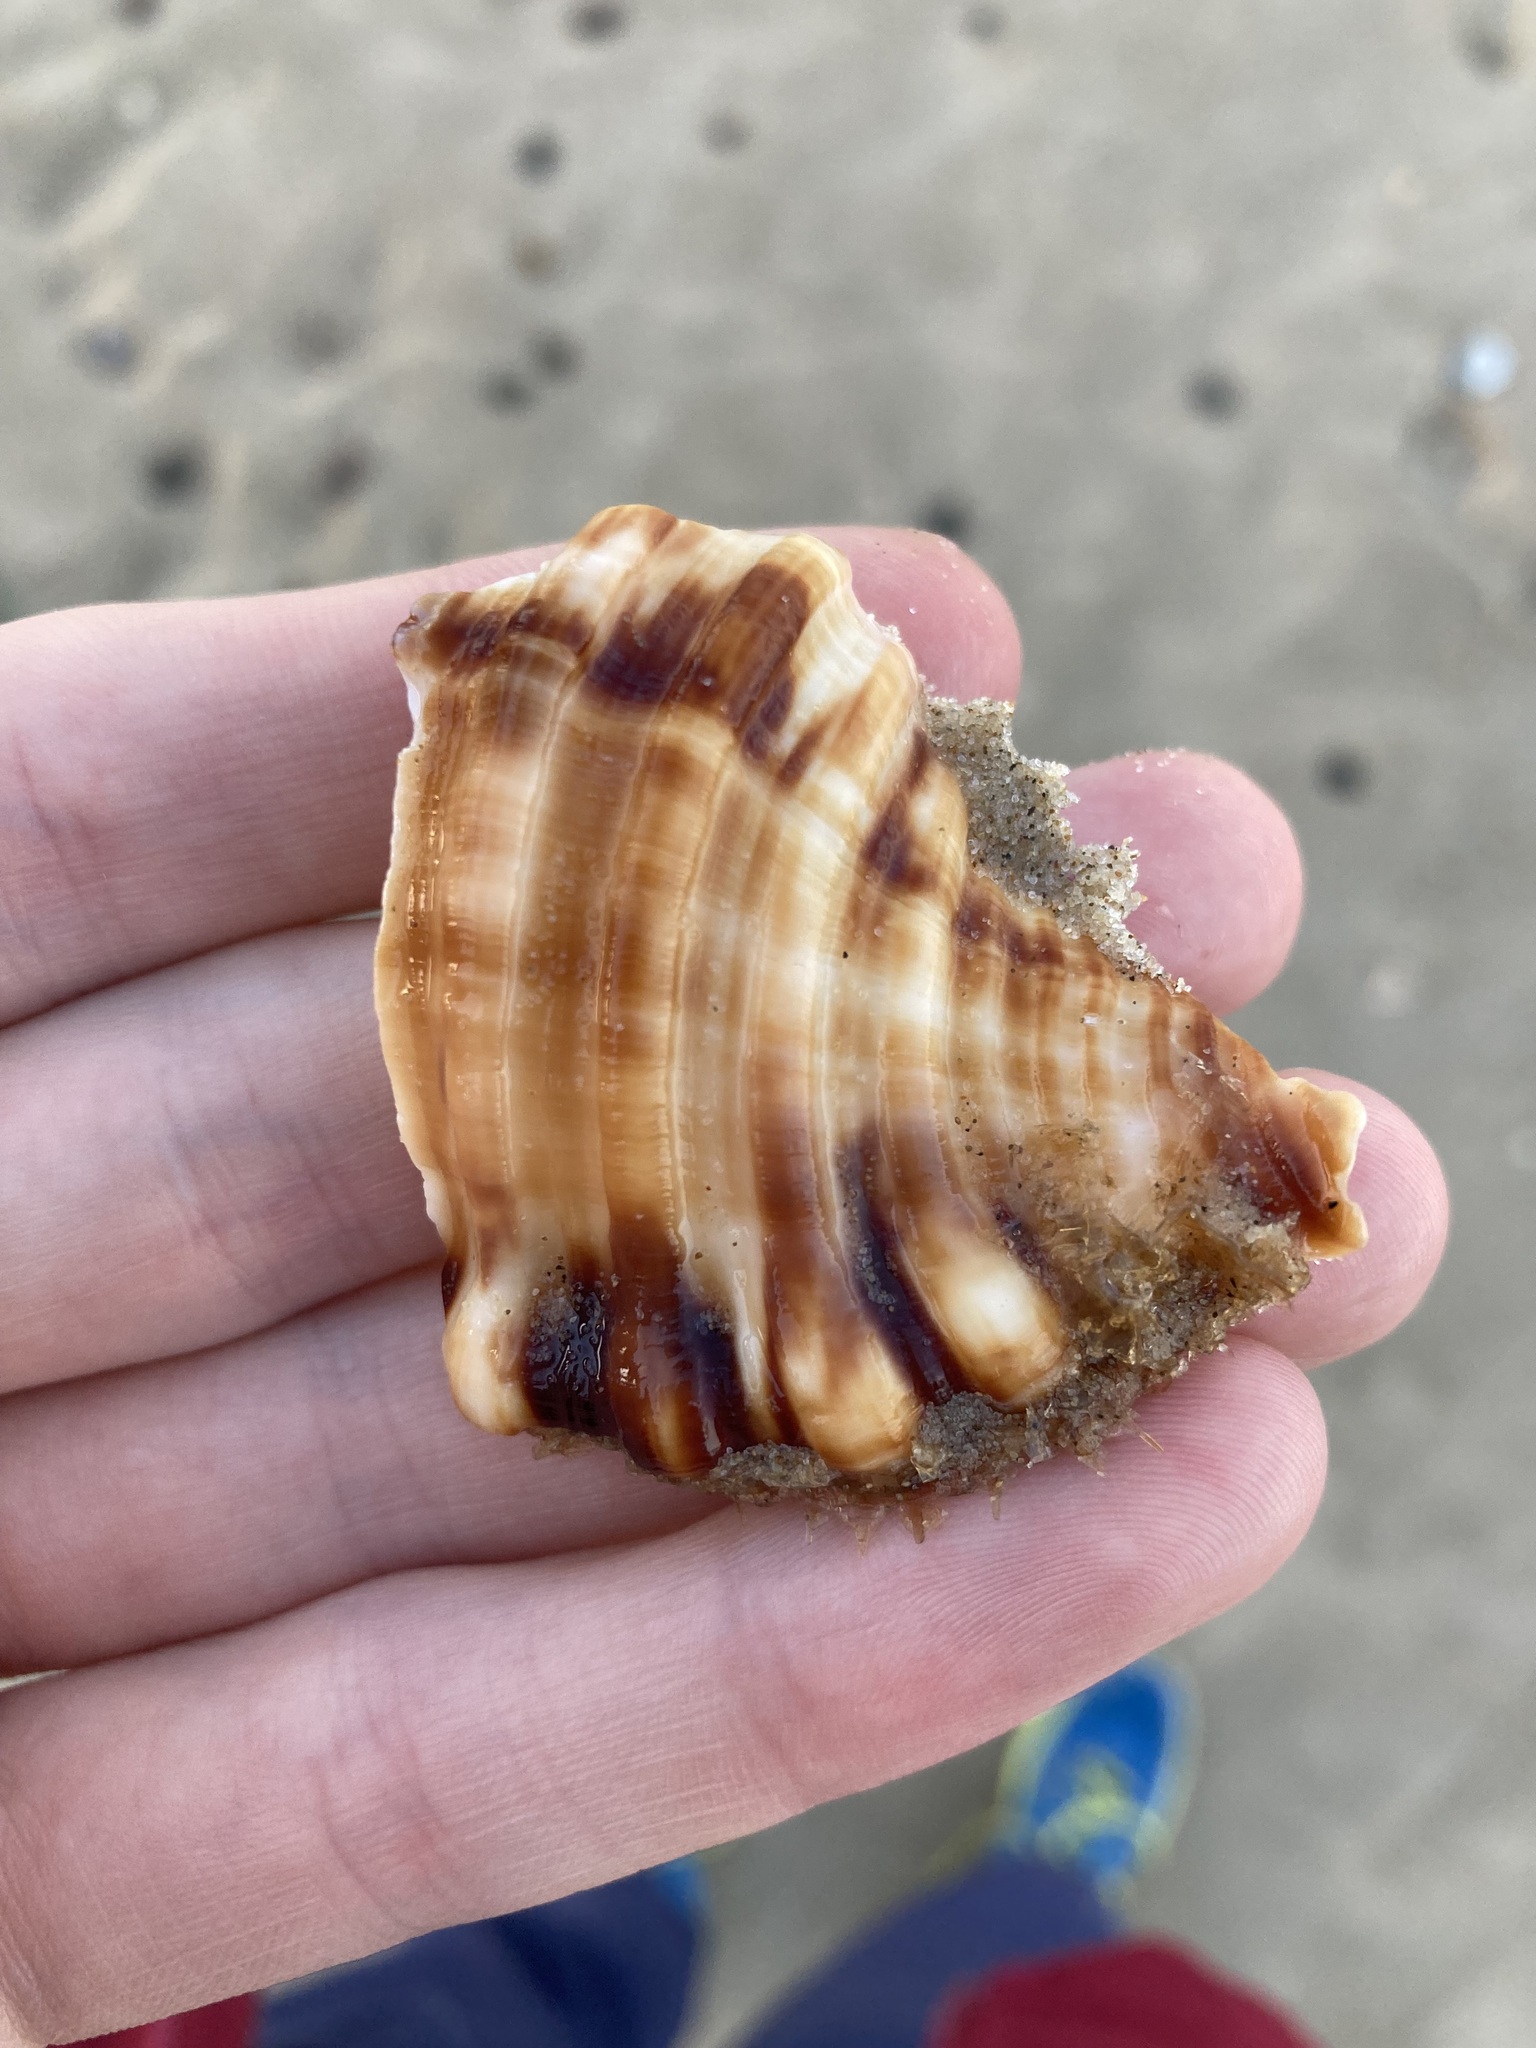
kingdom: Animalia
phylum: Mollusca
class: Gastropoda
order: Littorinimorpha
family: Cymatiidae
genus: Monoplex
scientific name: Monoplex parthenopeus
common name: Giant triton
